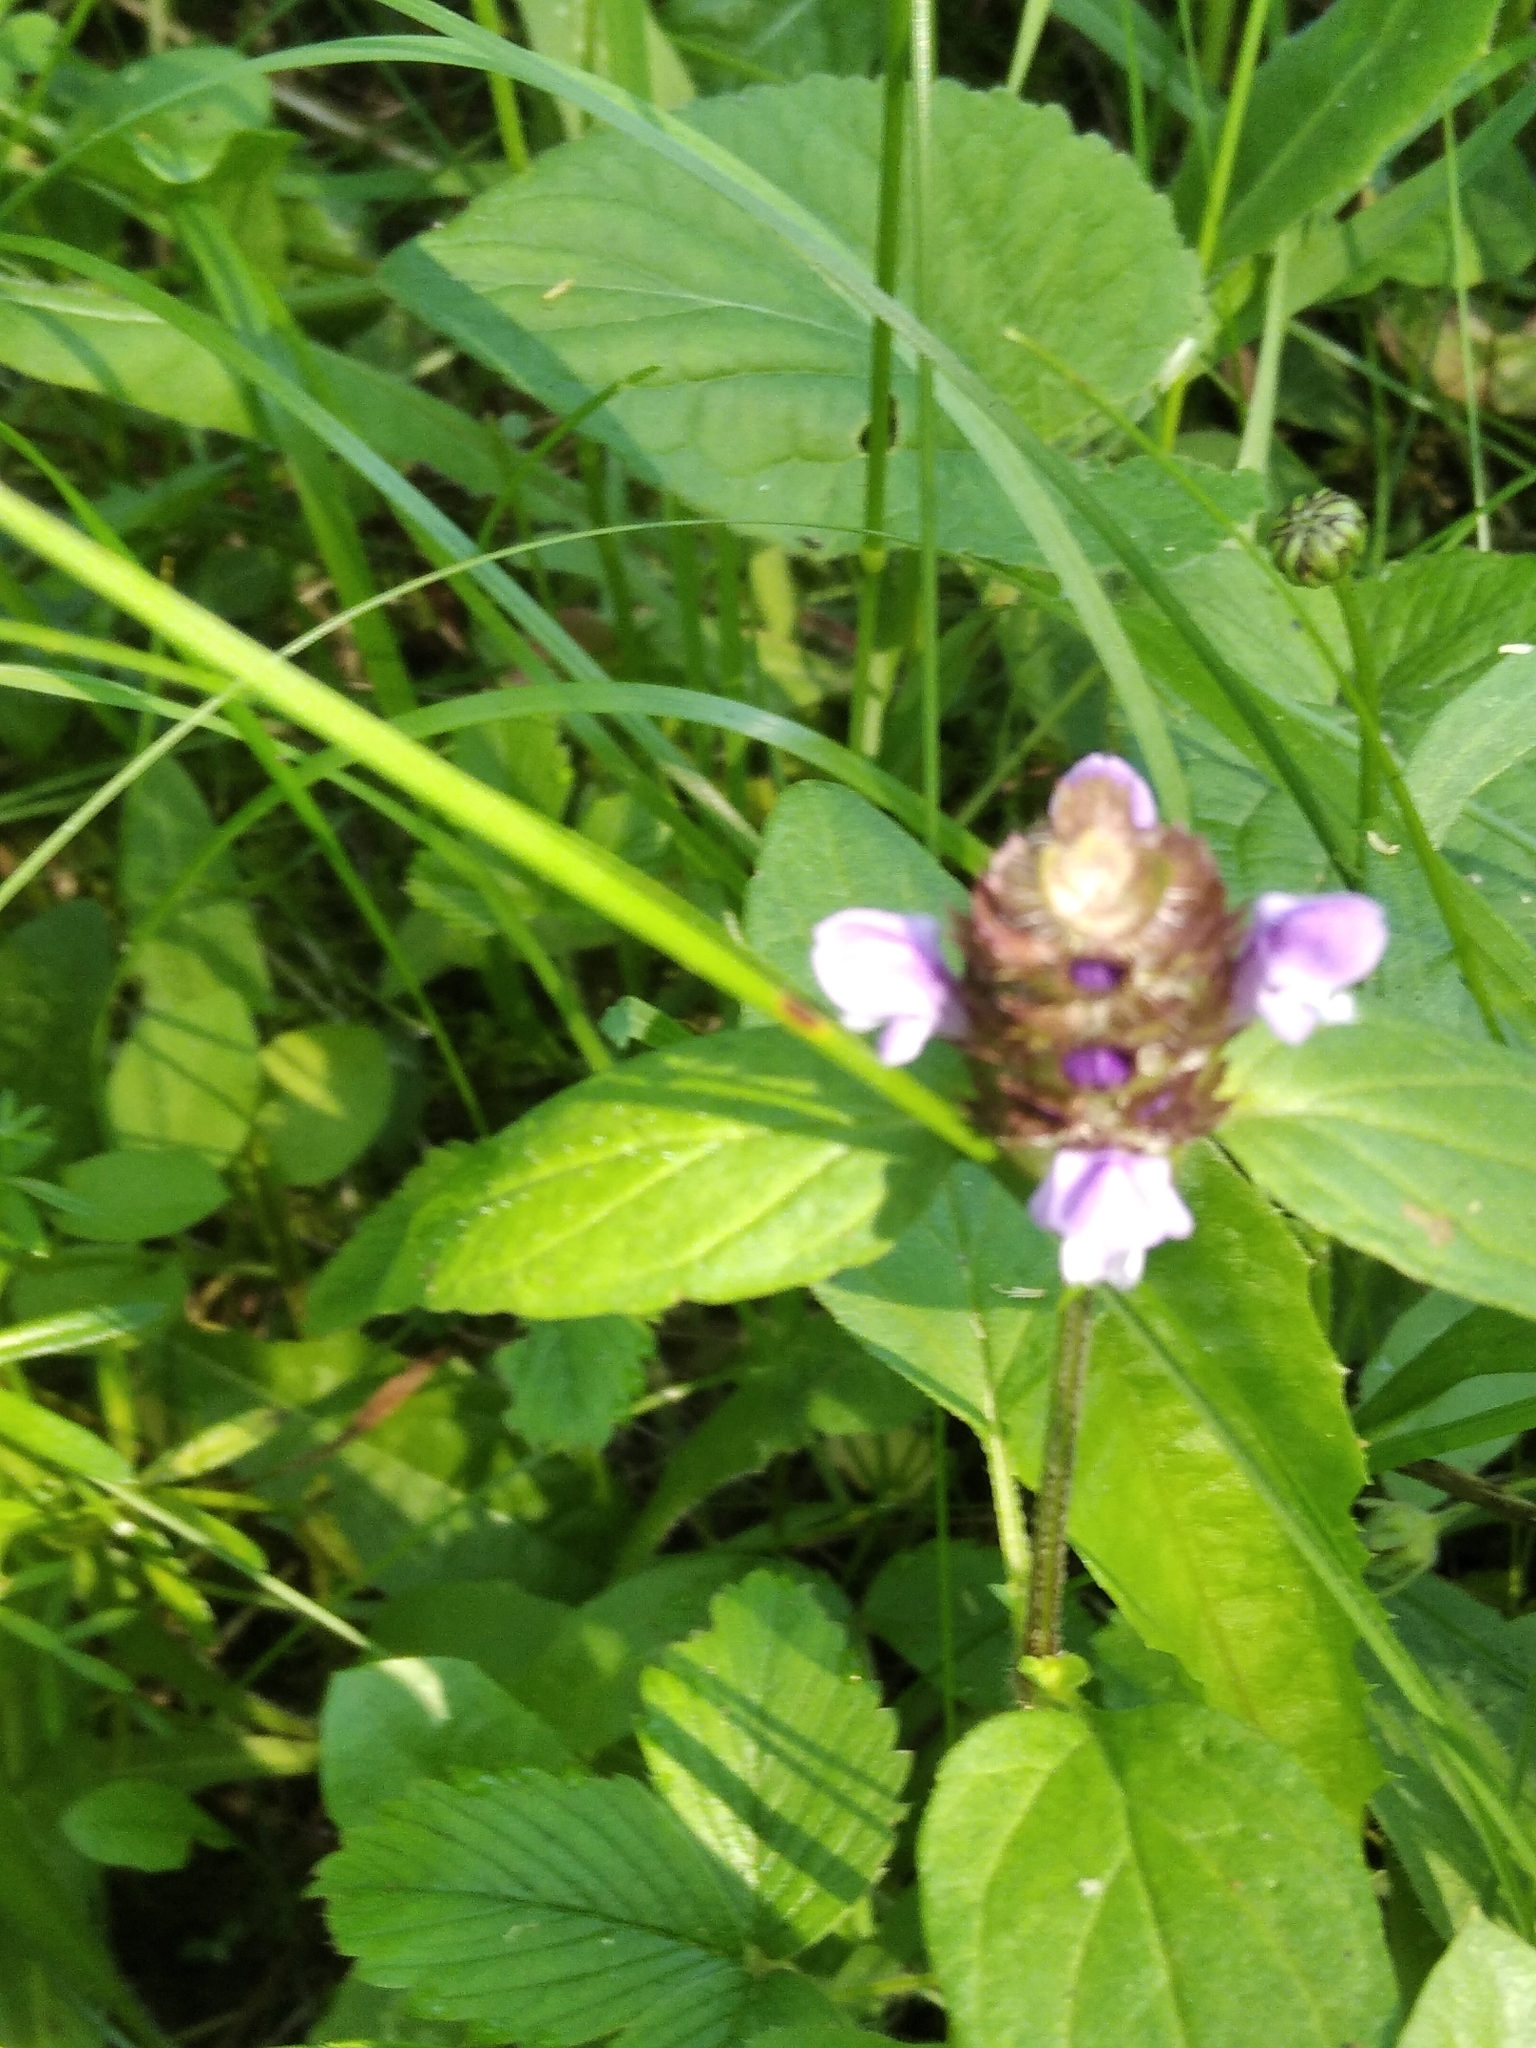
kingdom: Plantae
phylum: Tracheophyta
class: Magnoliopsida
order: Lamiales
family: Lamiaceae
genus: Prunella
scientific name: Prunella vulgaris
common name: Heal-all
